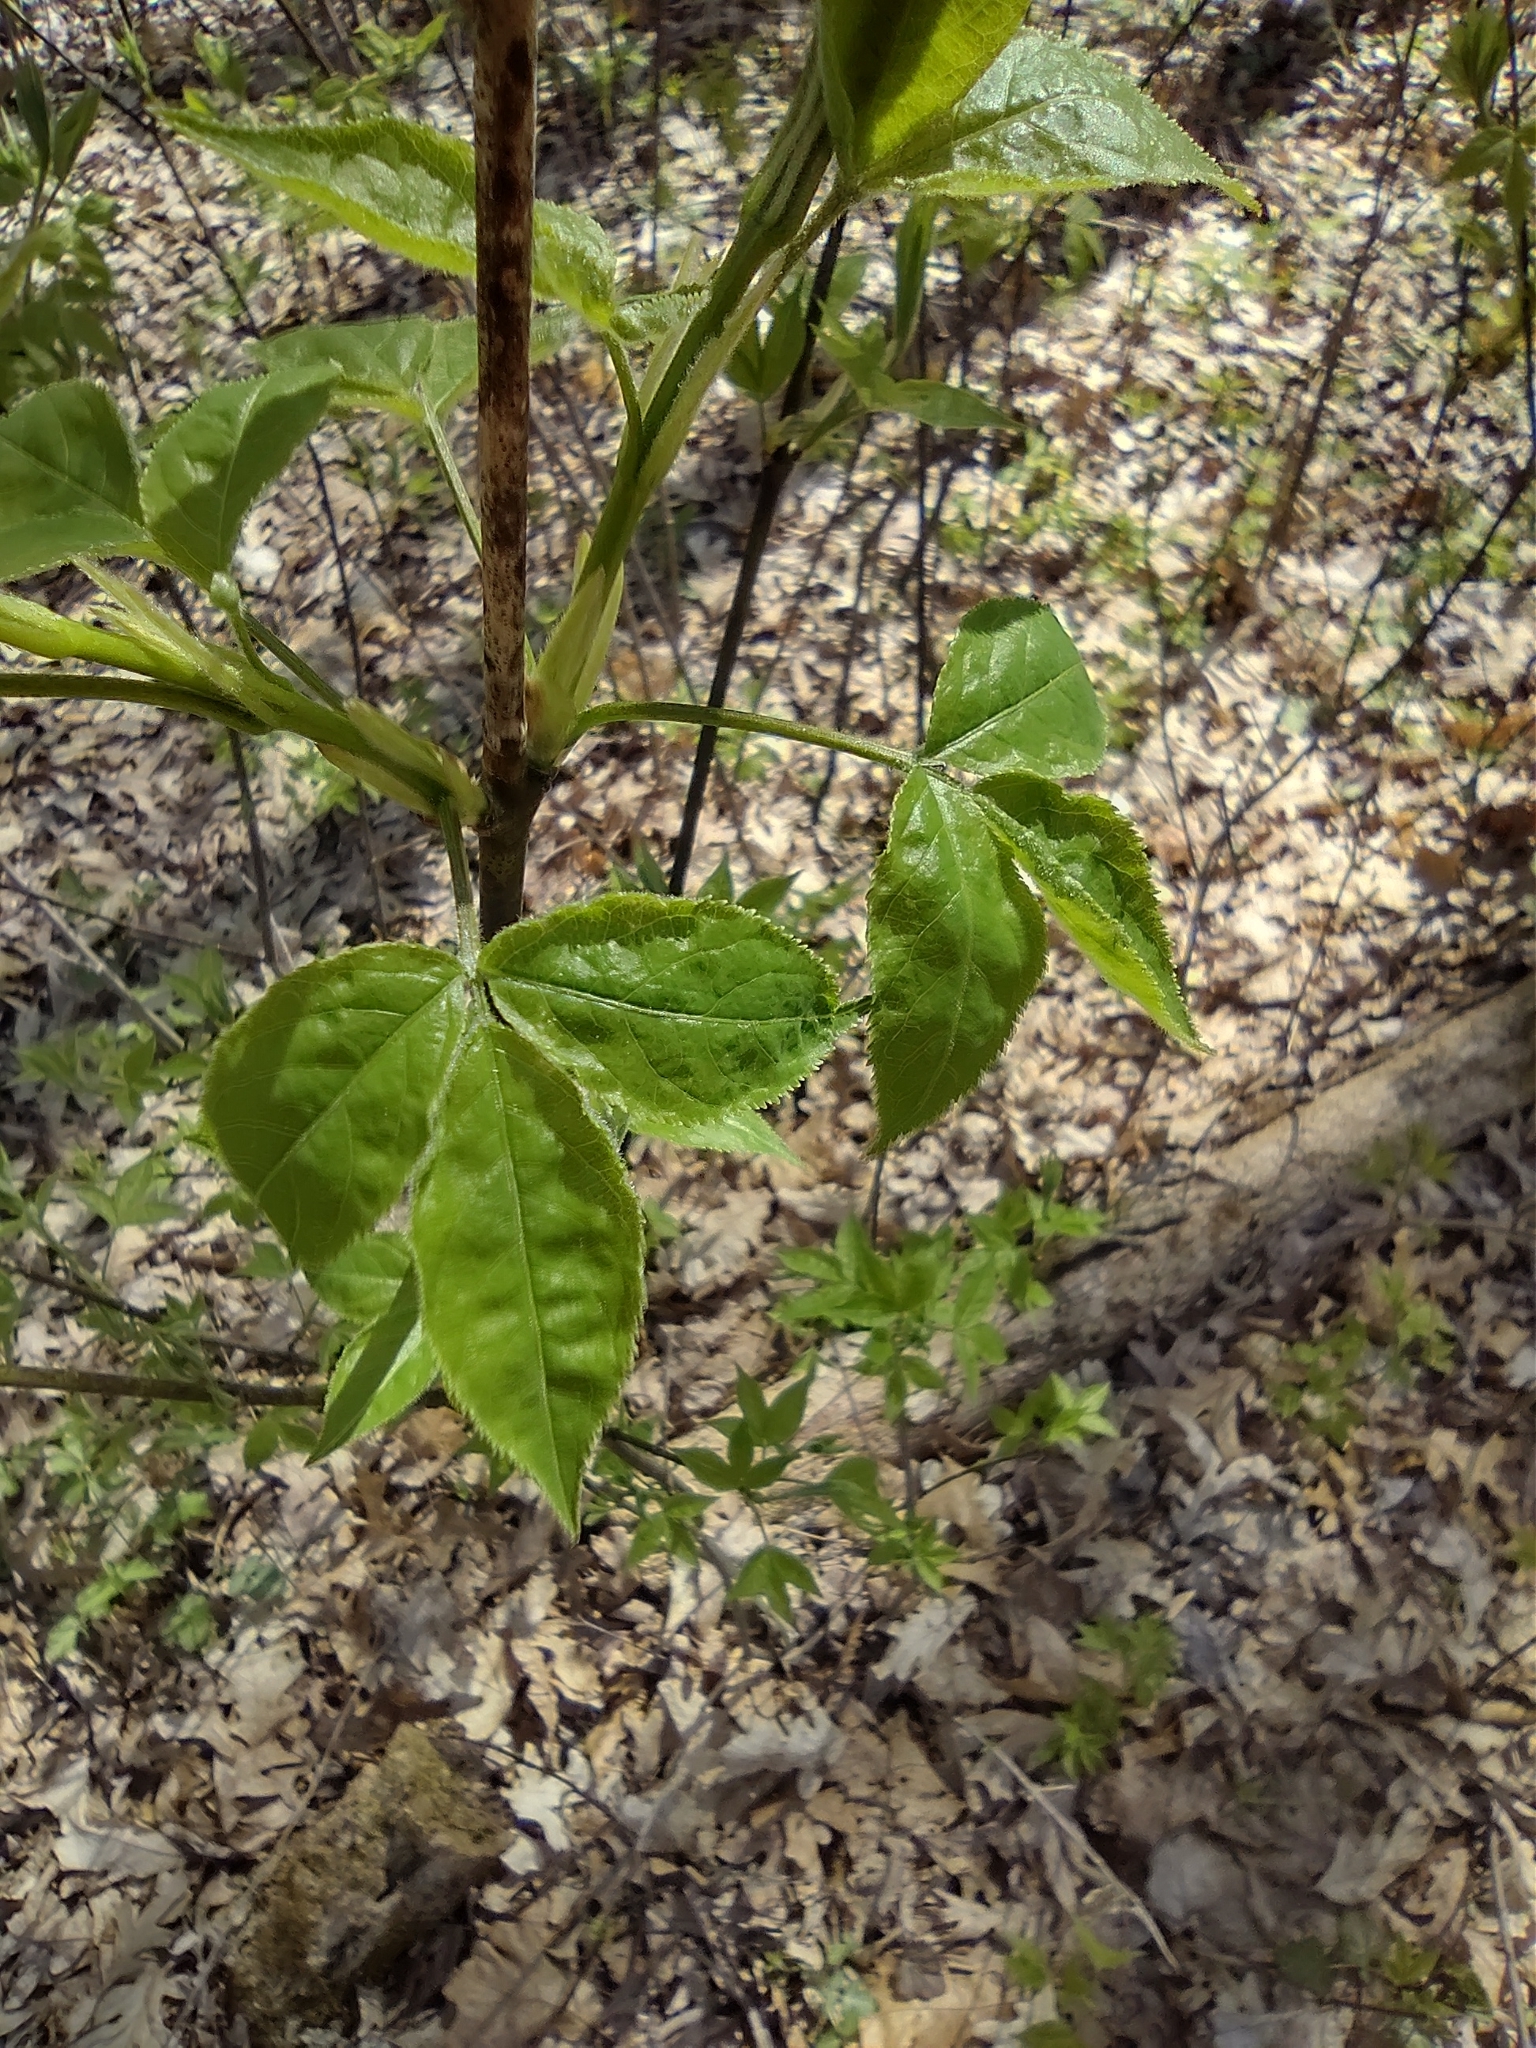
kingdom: Plantae
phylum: Tracheophyta
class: Magnoliopsida
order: Crossosomatales
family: Staphyleaceae
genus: Staphylea
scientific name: Staphylea trifolia
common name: American bladdernut
